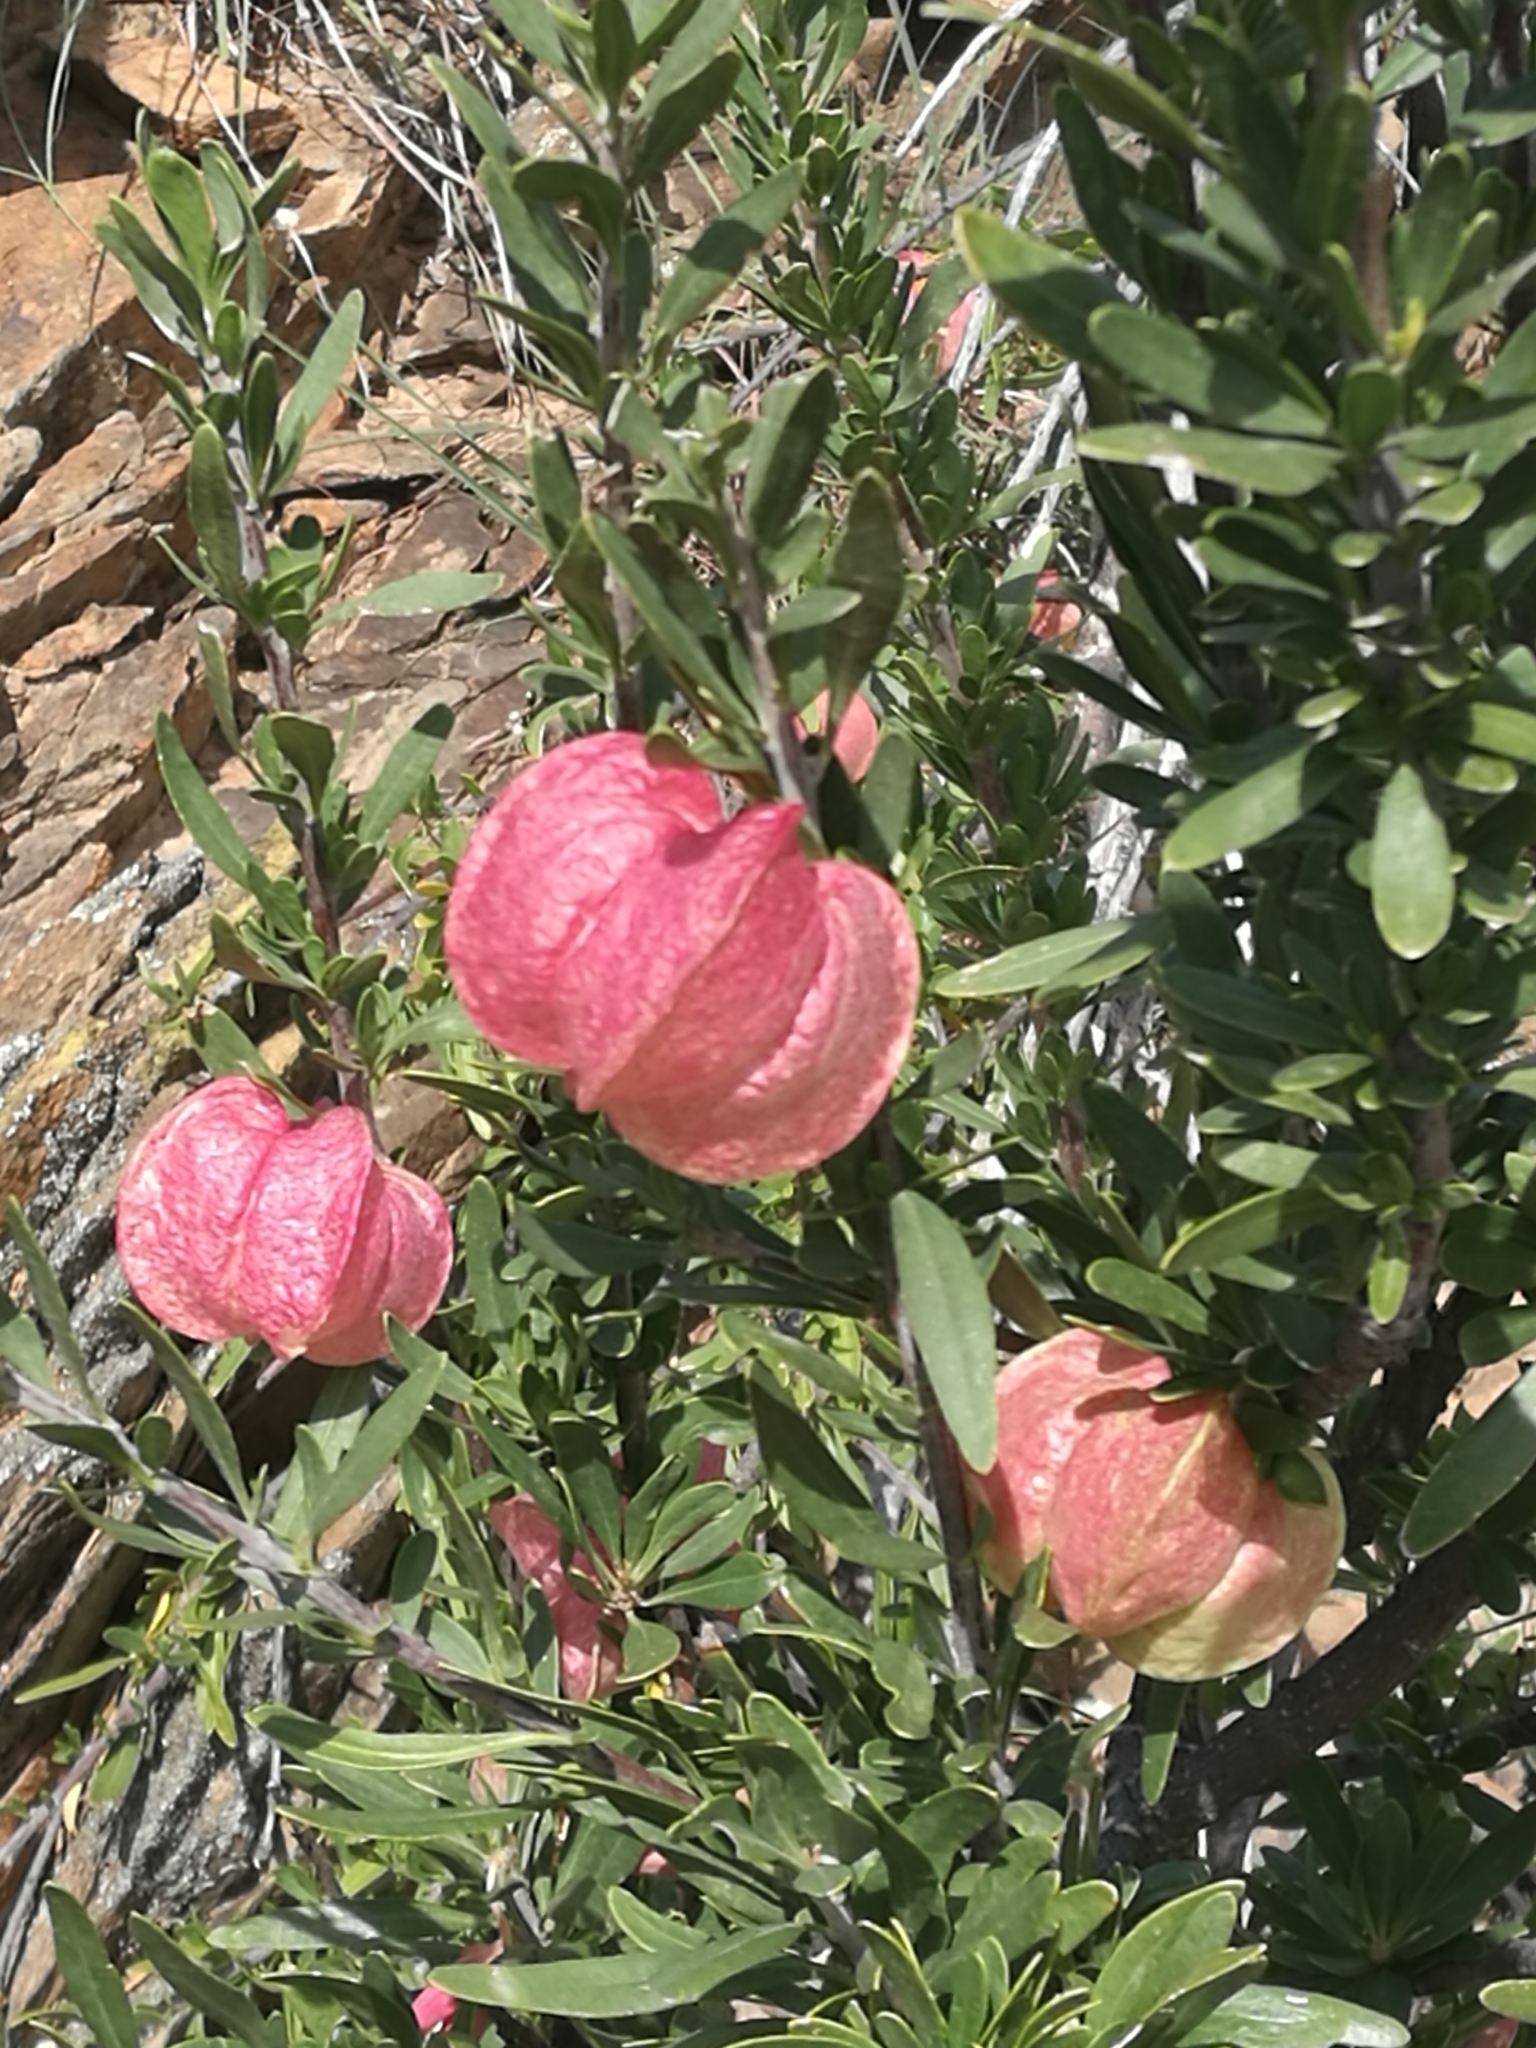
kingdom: Plantae
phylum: Tracheophyta
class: Magnoliopsida
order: Sapindales
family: Meliaceae
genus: Nymania
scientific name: Nymania capensis
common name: Chinese lantern tree
